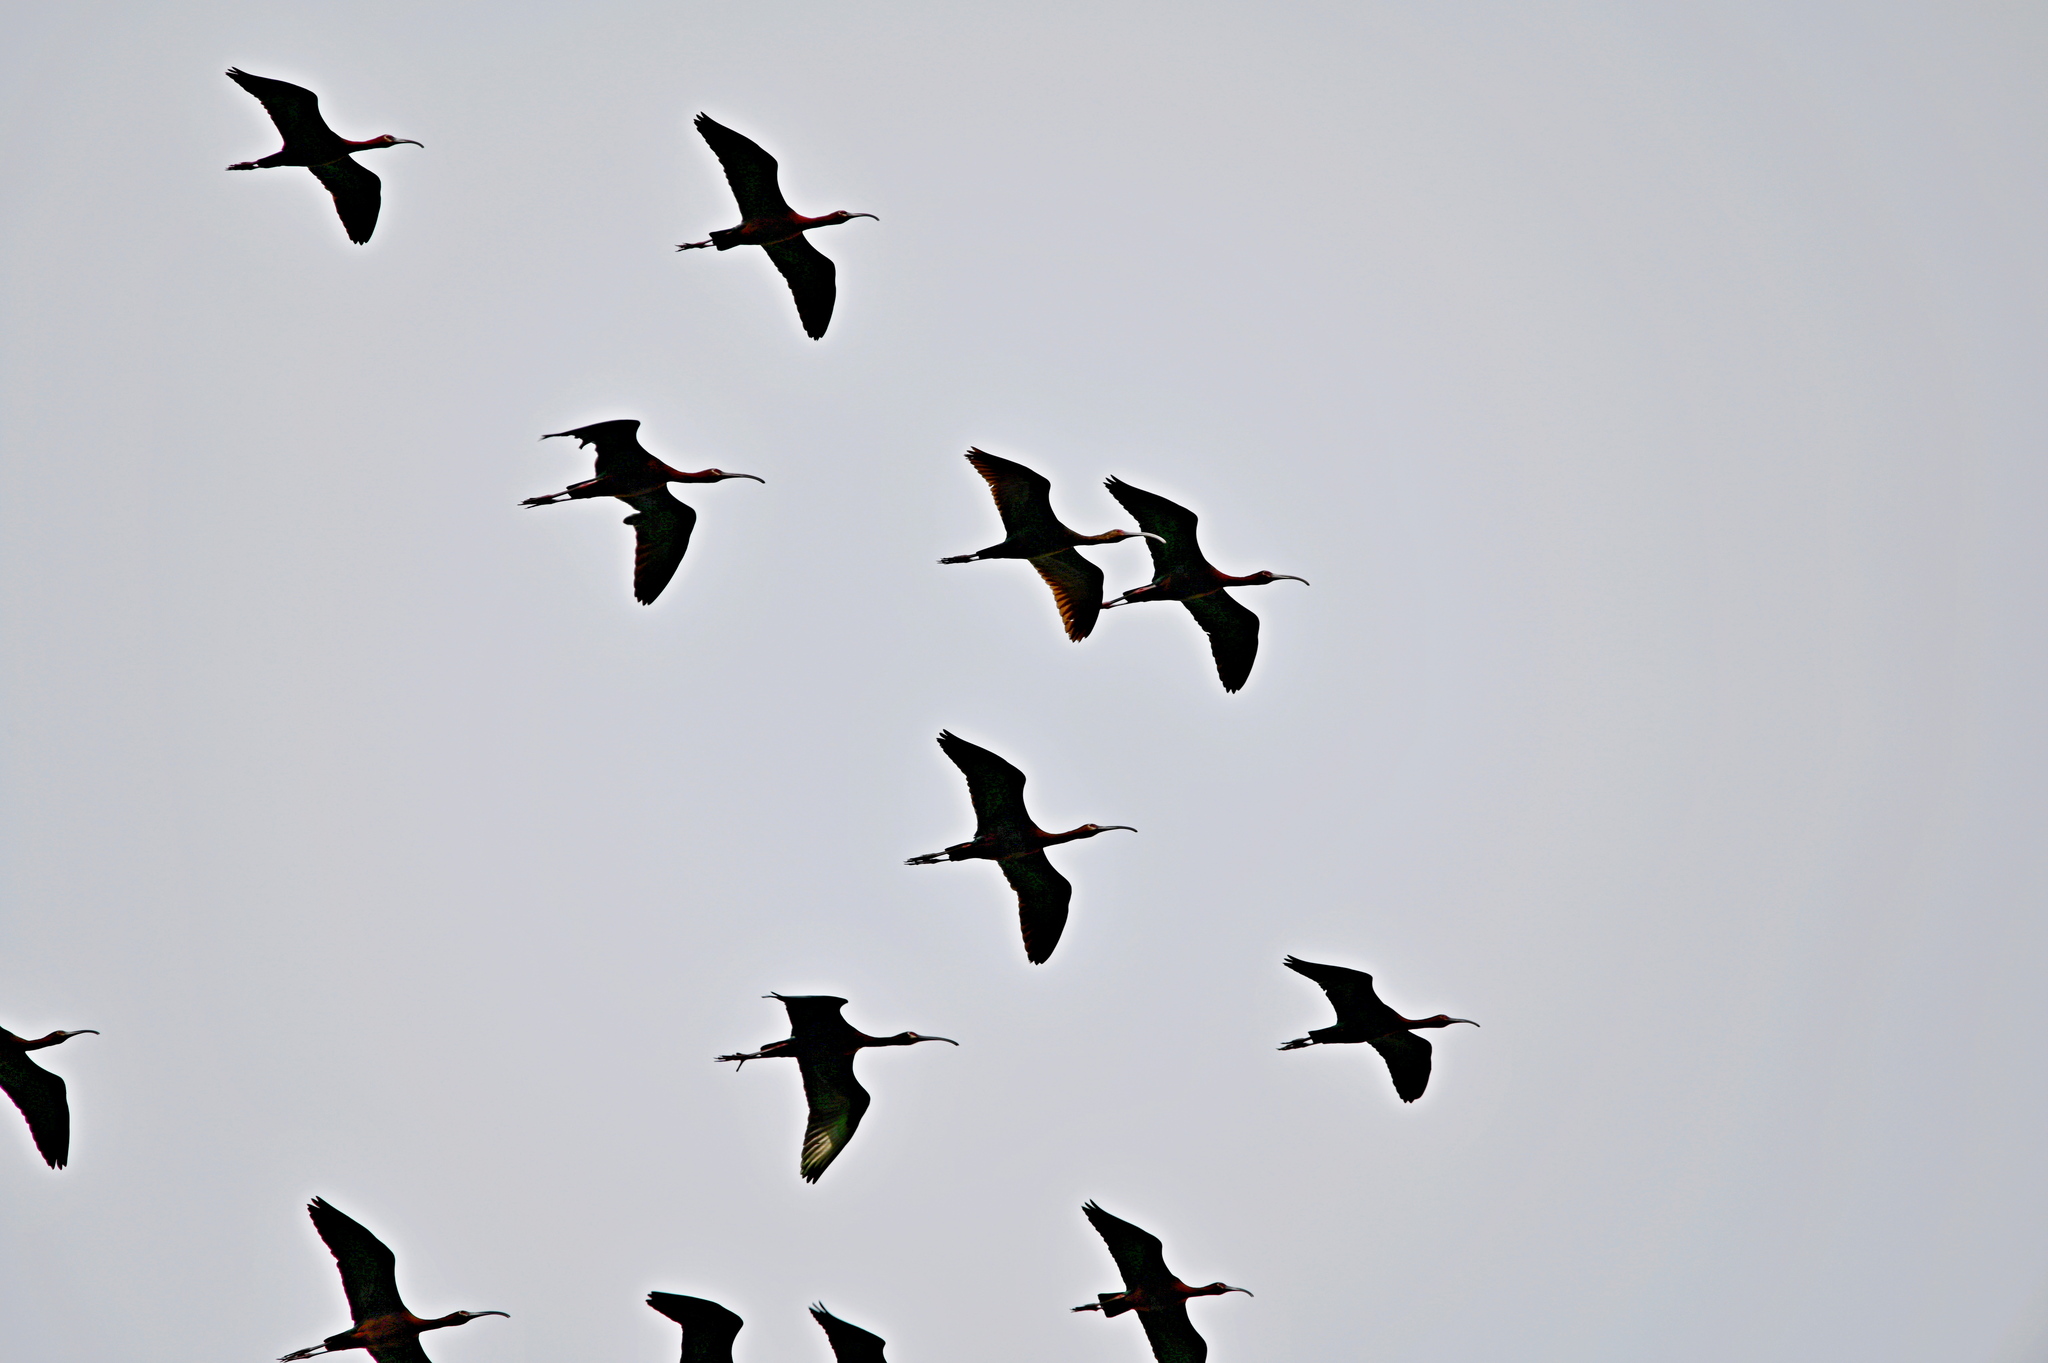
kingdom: Animalia
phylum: Chordata
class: Aves
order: Pelecaniformes
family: Threskiornithidae
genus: Plegadis
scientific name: Plegadis chihi
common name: White-faced ibis
